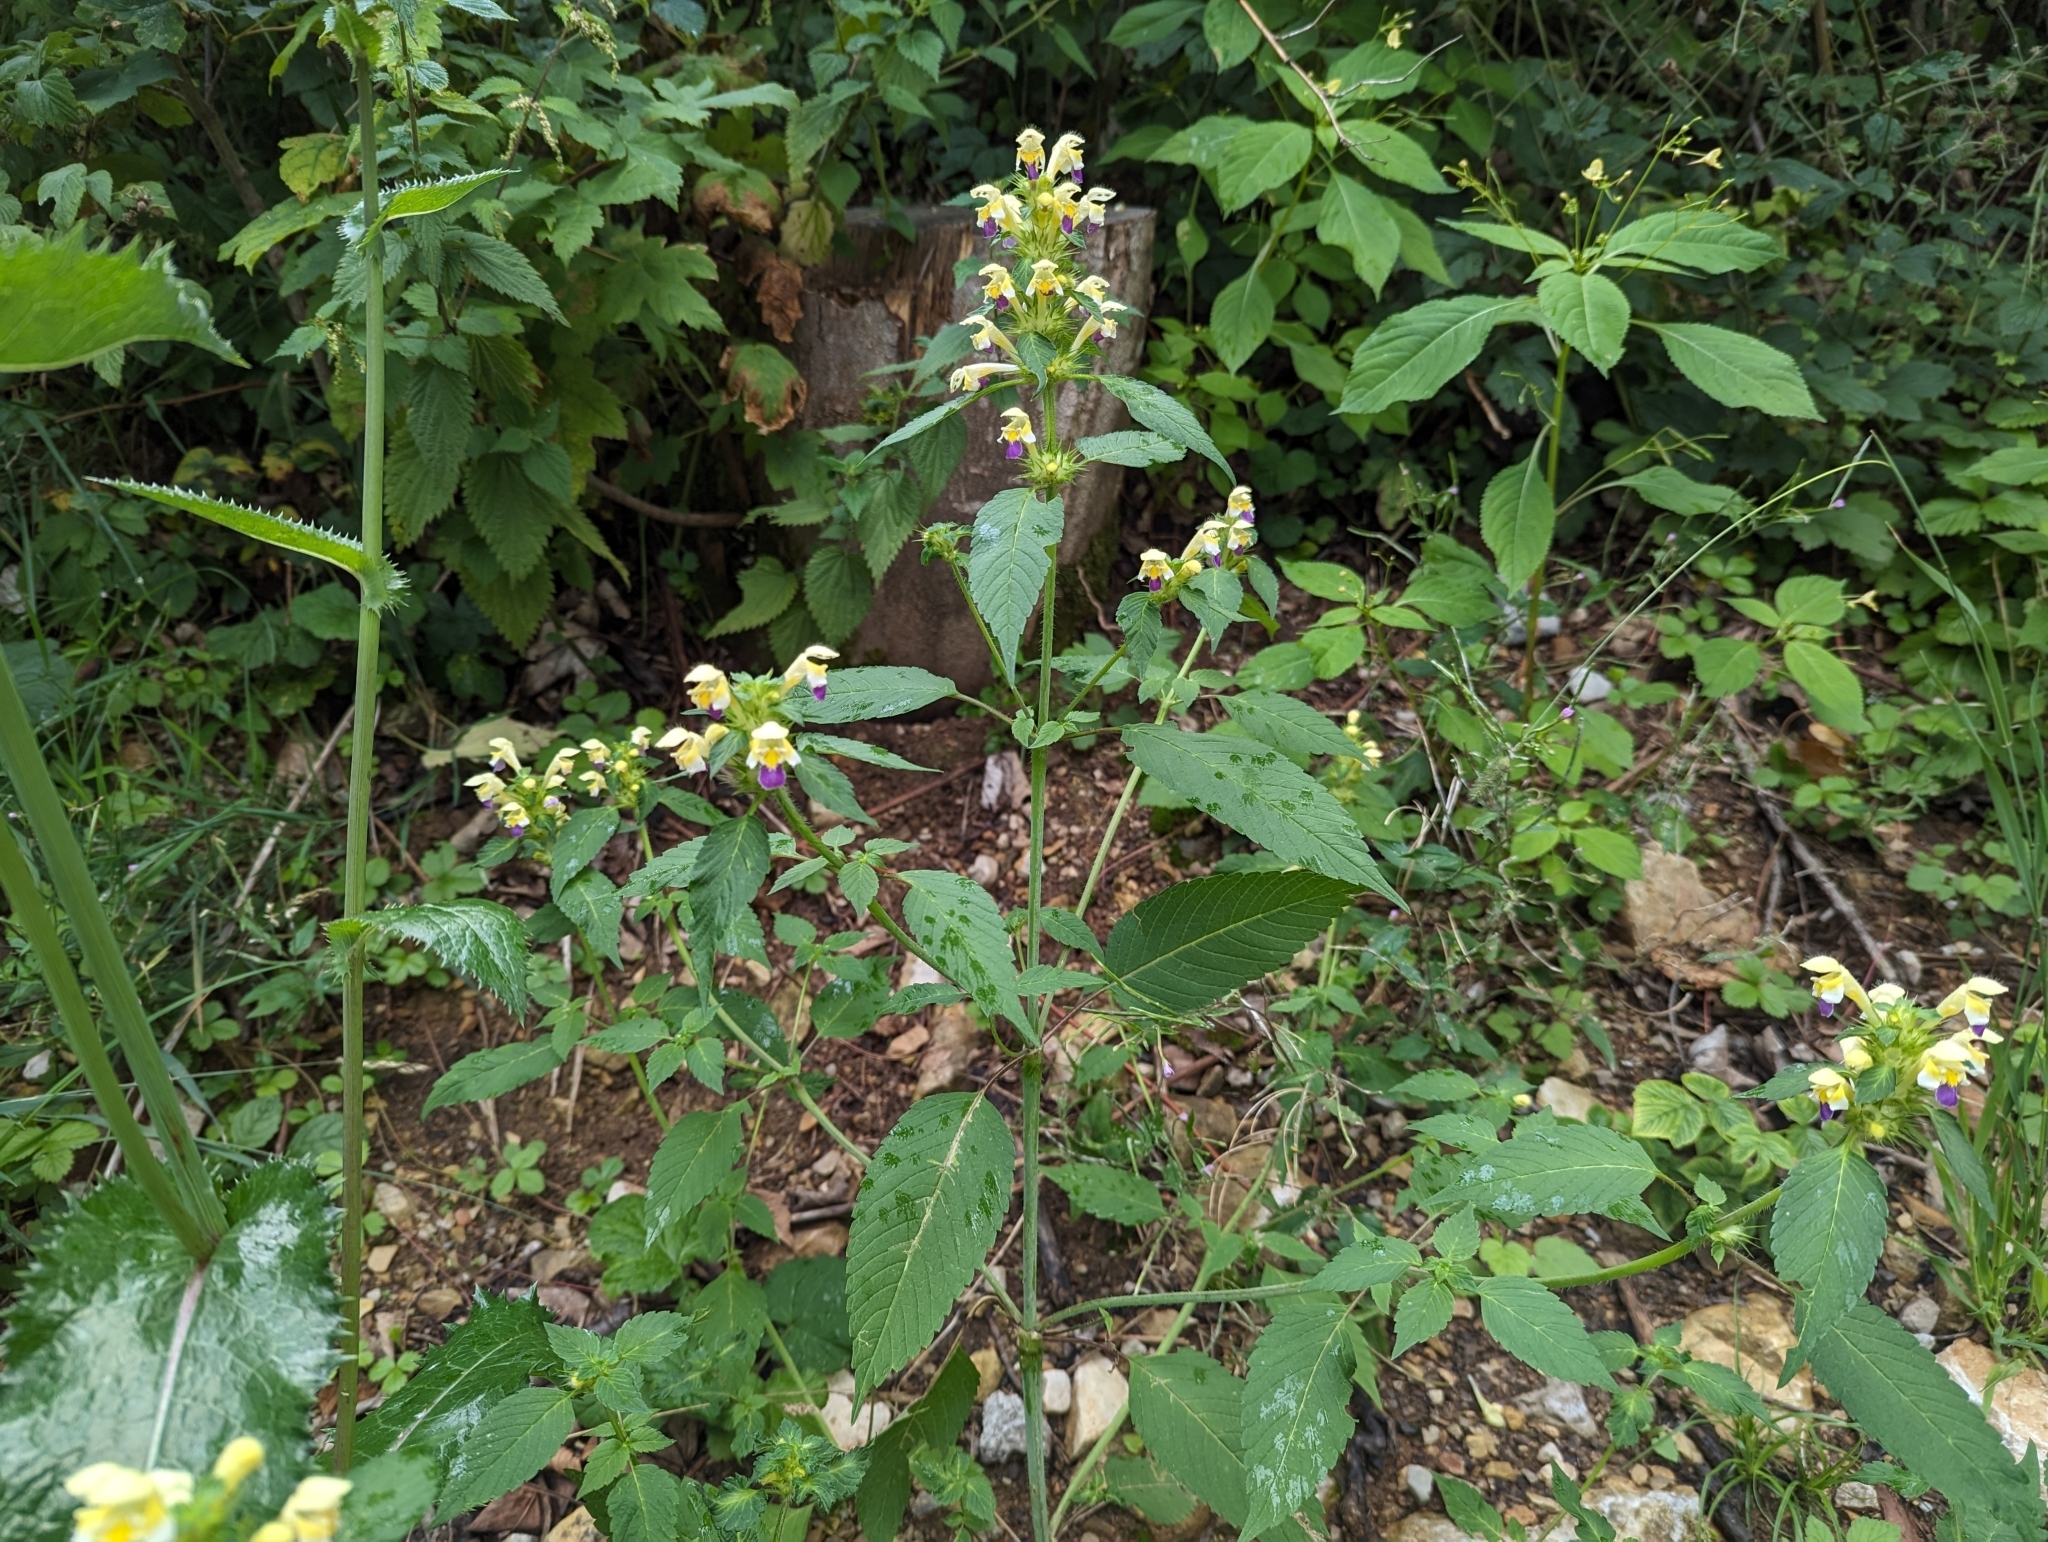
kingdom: Plantae
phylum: Tracheophyta
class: Magnoliopsida
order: Lamiales
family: Lamiaceae
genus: Galeopsis
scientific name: Galeopsis speciosa
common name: Large-flowered hemp-nettle
